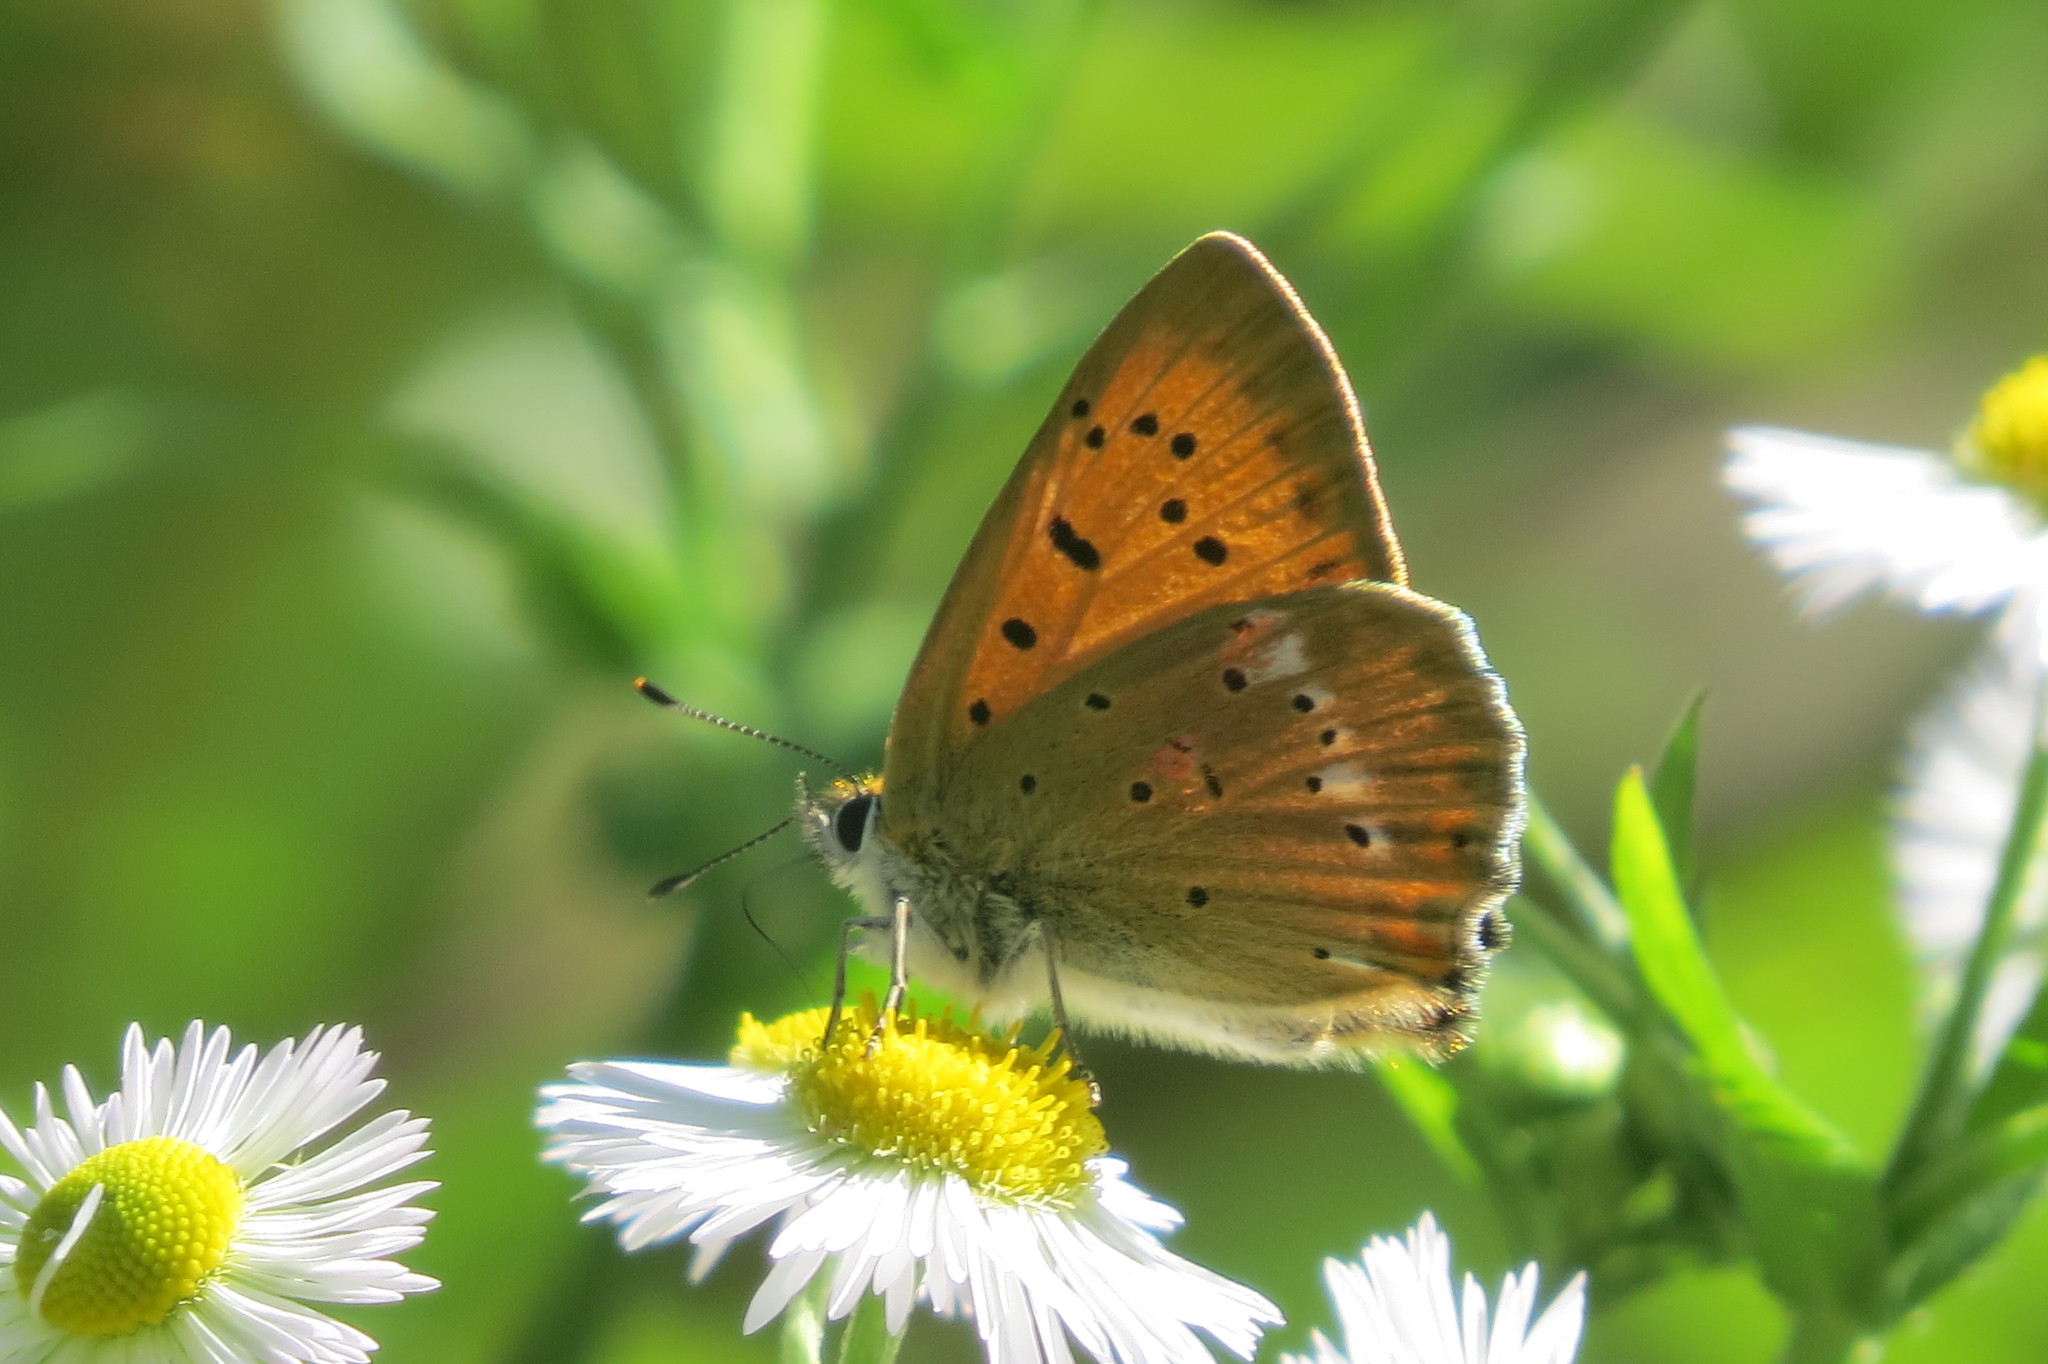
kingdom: Animalia
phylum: Arthropoda
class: Insecta
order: Lepidoptera
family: Lycaenidae
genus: Lycaena
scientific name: Lycaena virgaureae
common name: Scarce copper
